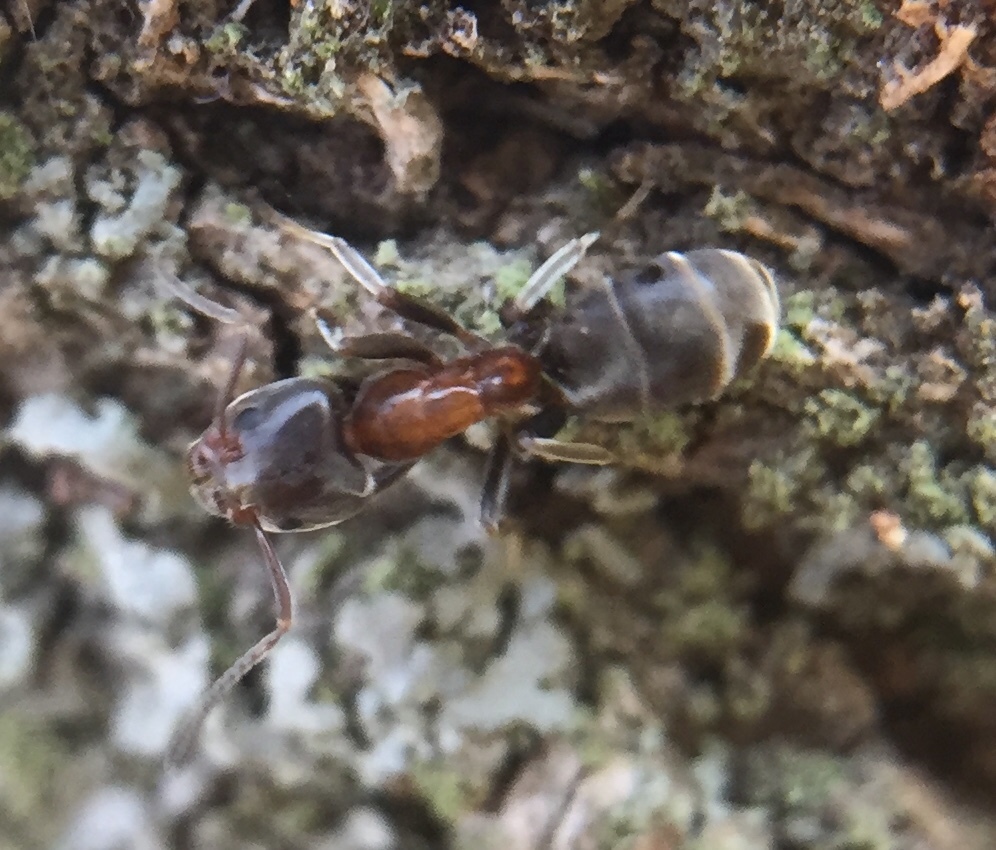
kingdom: Animalia
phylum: Arthropoda
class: Insecta
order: Hymenoptera
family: Formicidae
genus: Liometopum
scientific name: Liometopum microcephalum
